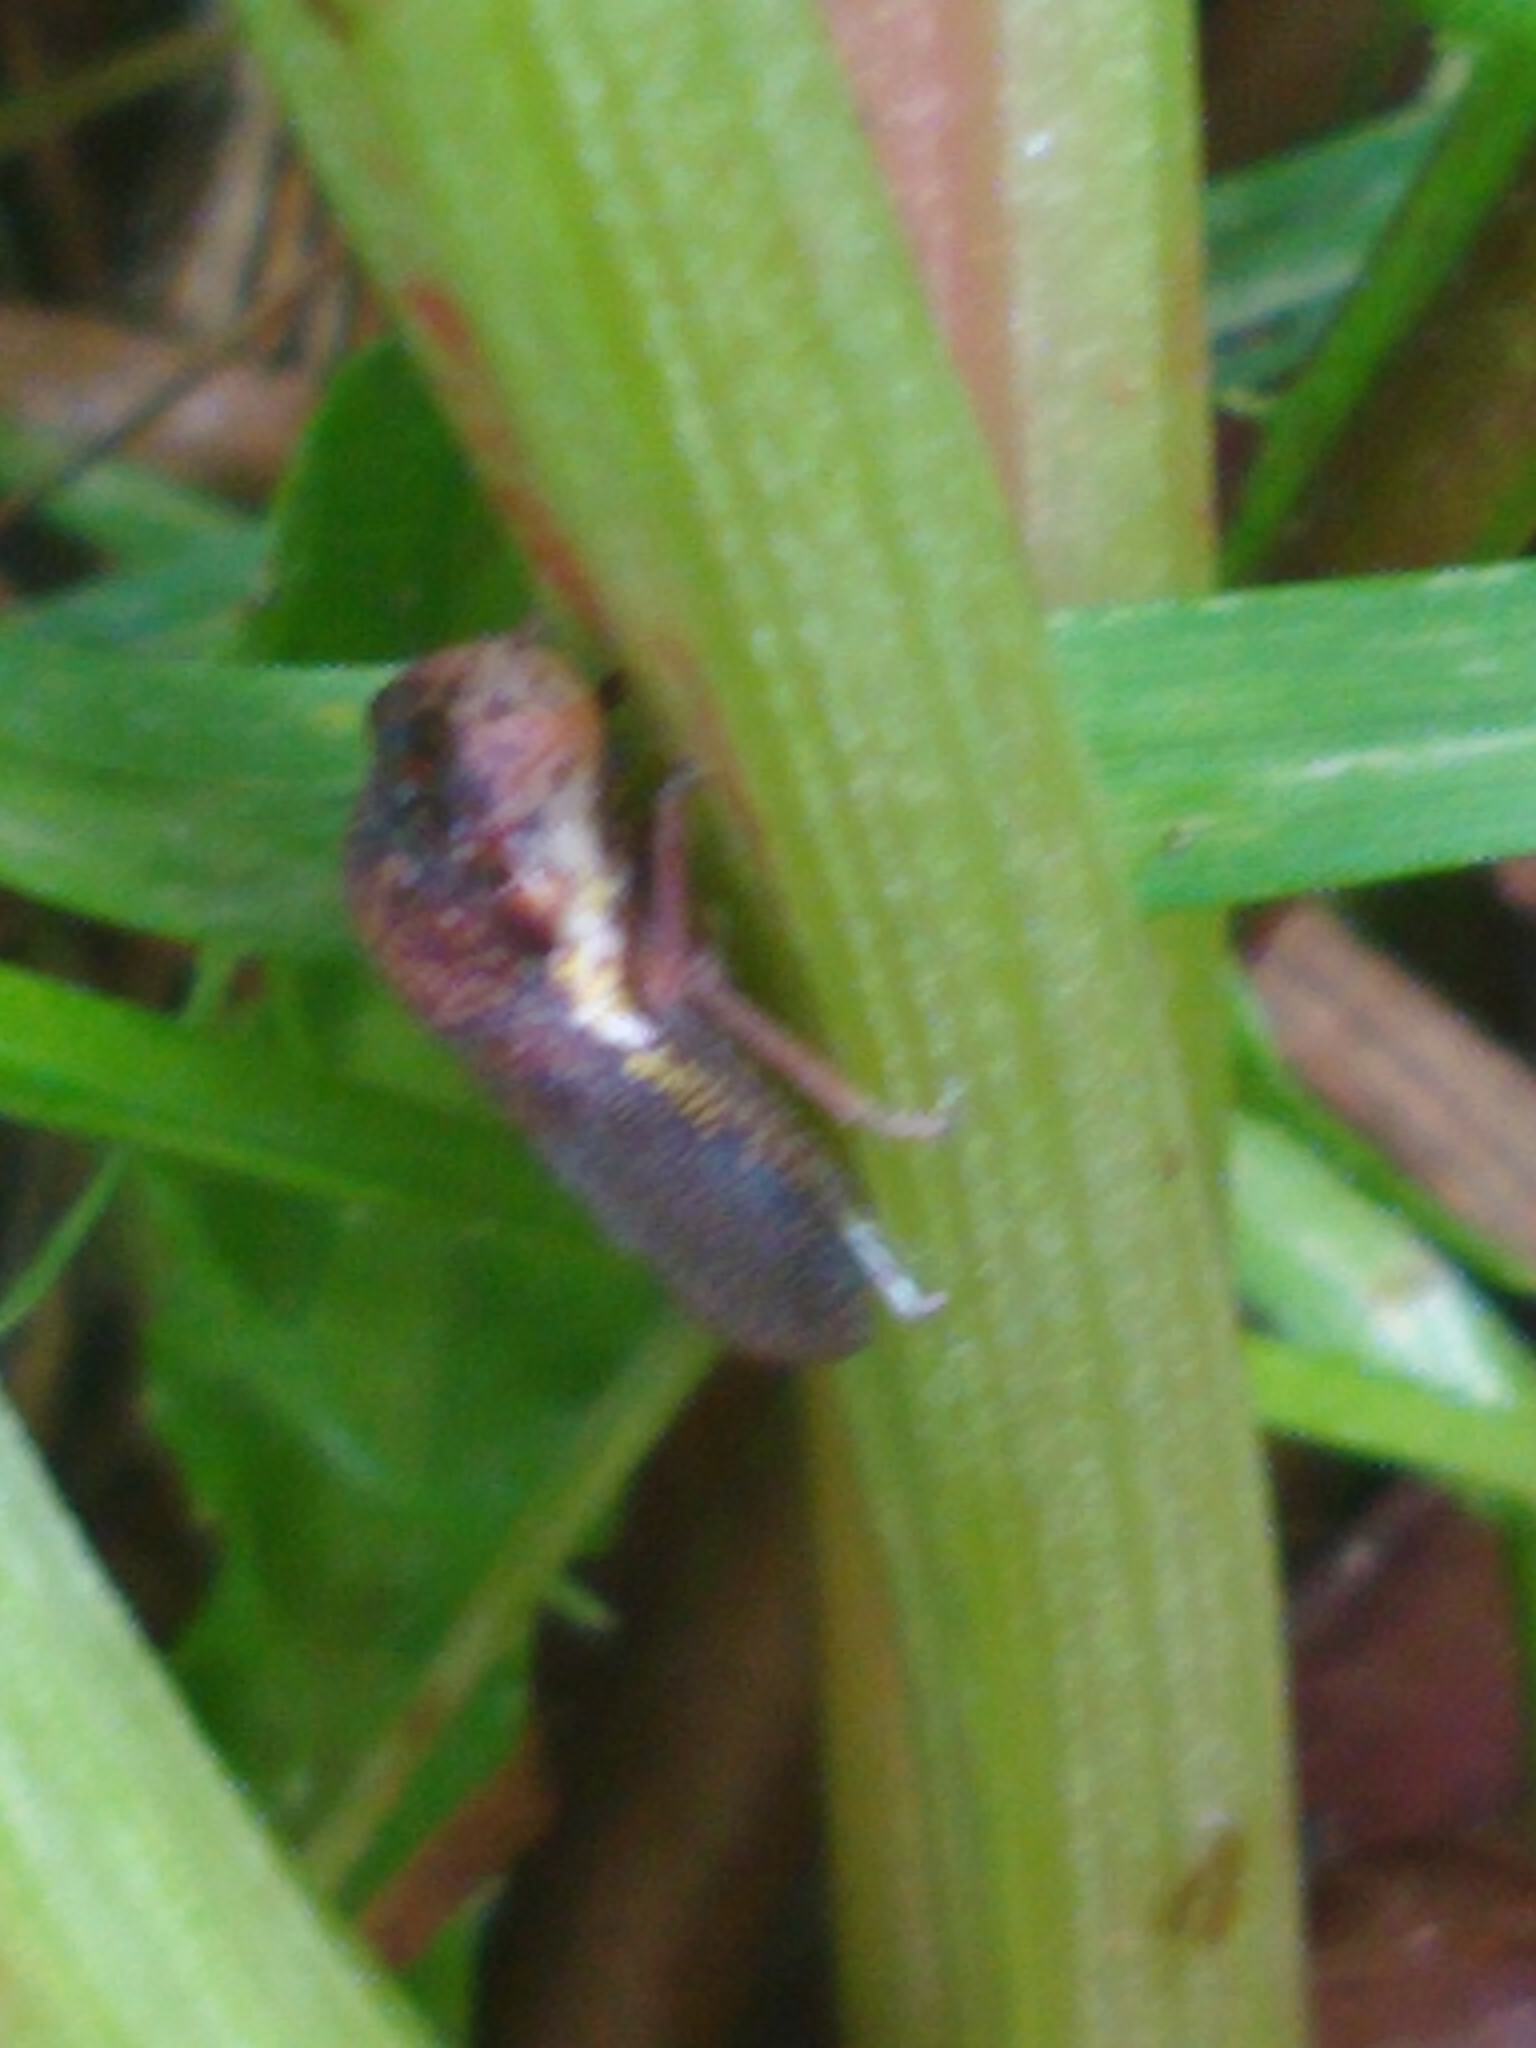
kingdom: Animalia
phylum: Arthropoda
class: Insecta
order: Hemiptera
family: Cicadellidae
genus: Paraulacizes
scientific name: Paraulacizes irrorata
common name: Speckled sharpshooter
